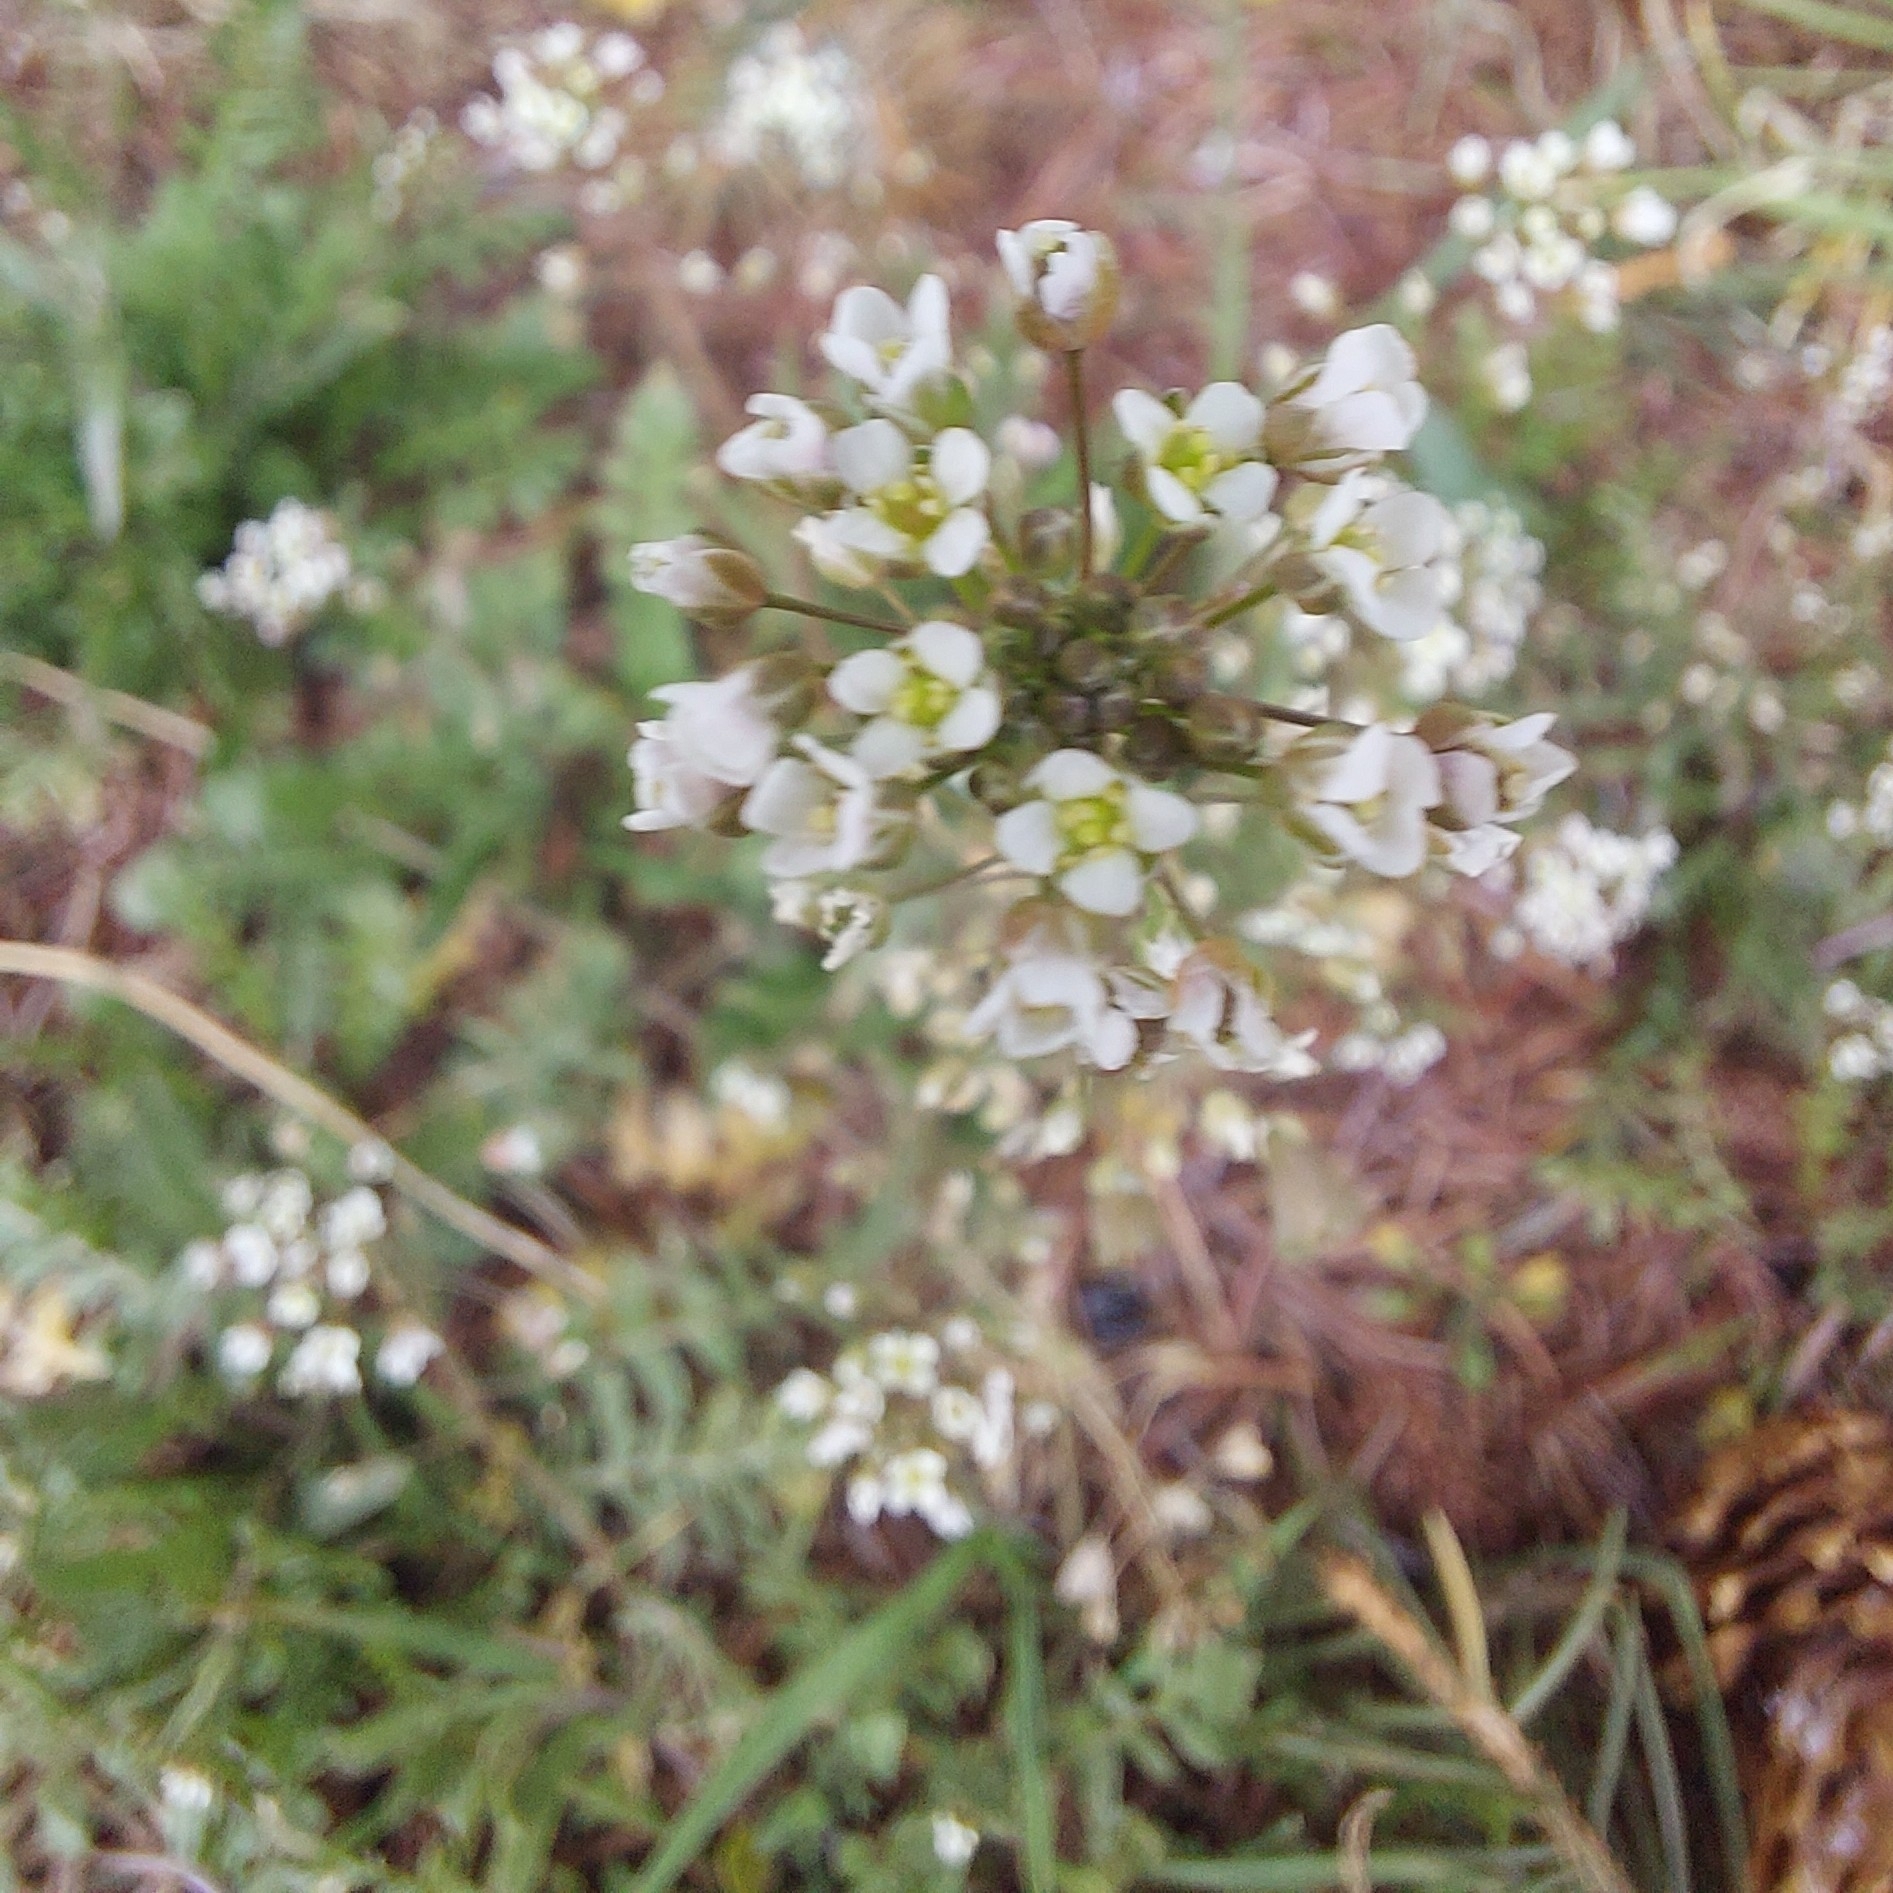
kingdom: Plantae
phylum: Tracheophyta
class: Magnoliopsida
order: Brassicales
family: Brassicaceae
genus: Capsella
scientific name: Capsella bursa-pastoris
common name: Shepherd's purse
